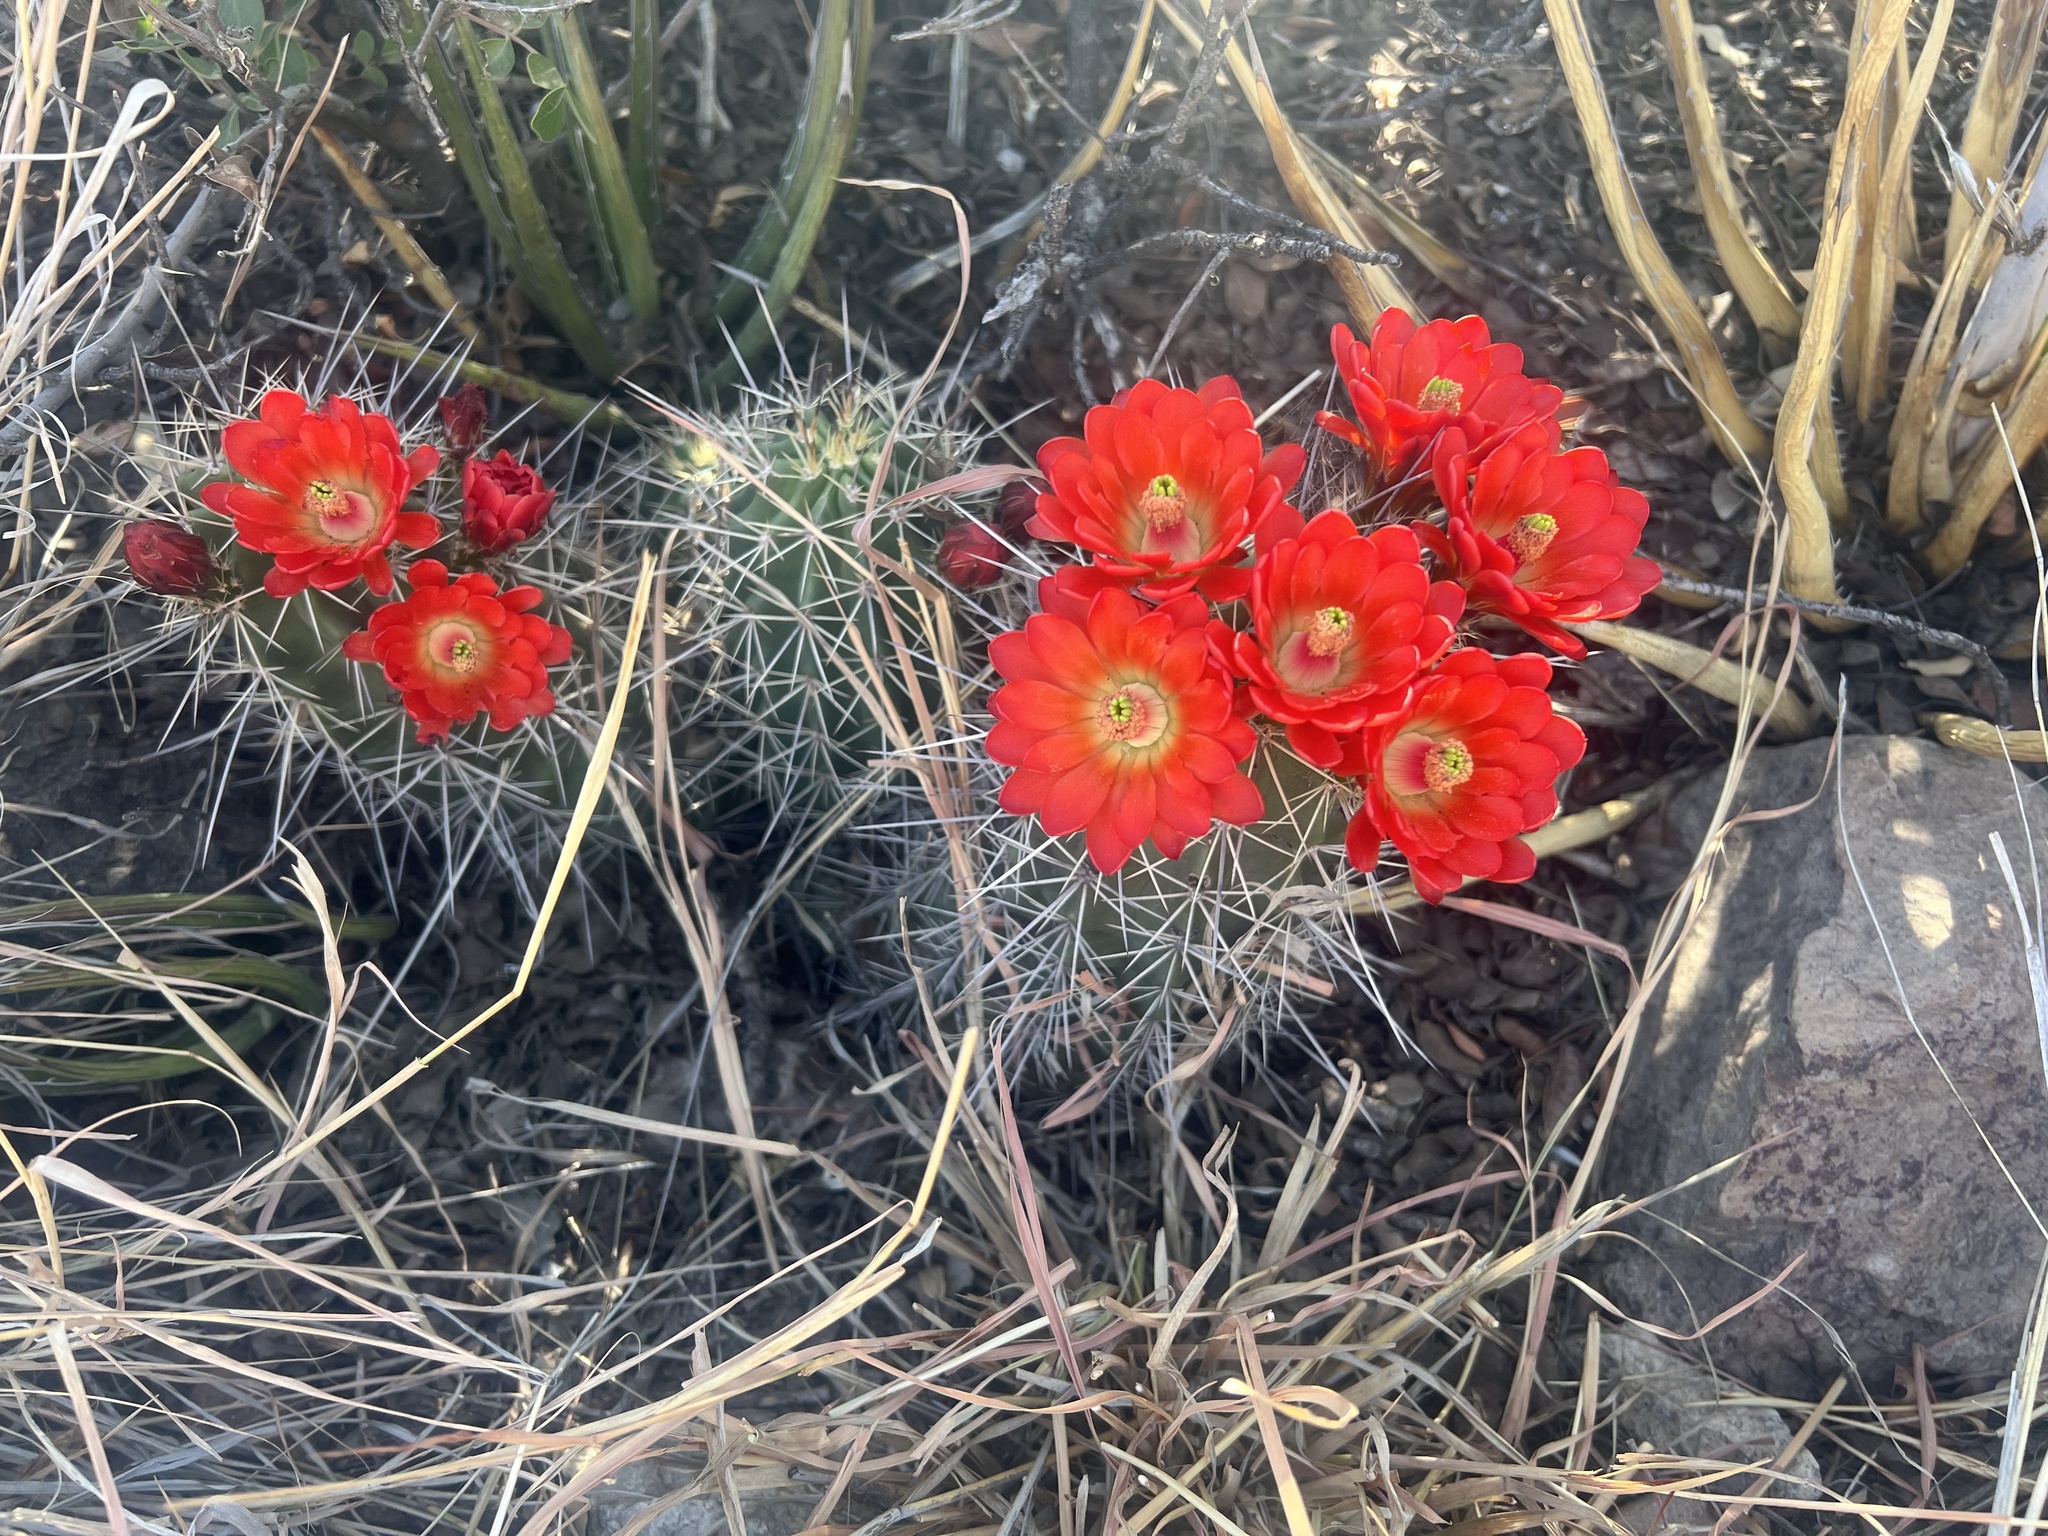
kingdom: Plantae
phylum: Tracheophyta
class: Magnoliopsida
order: Caryophyllales
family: Cactaceae
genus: Echinocereus
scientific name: Echinocereus coccineus
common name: Scarlet hedgehog cactus
